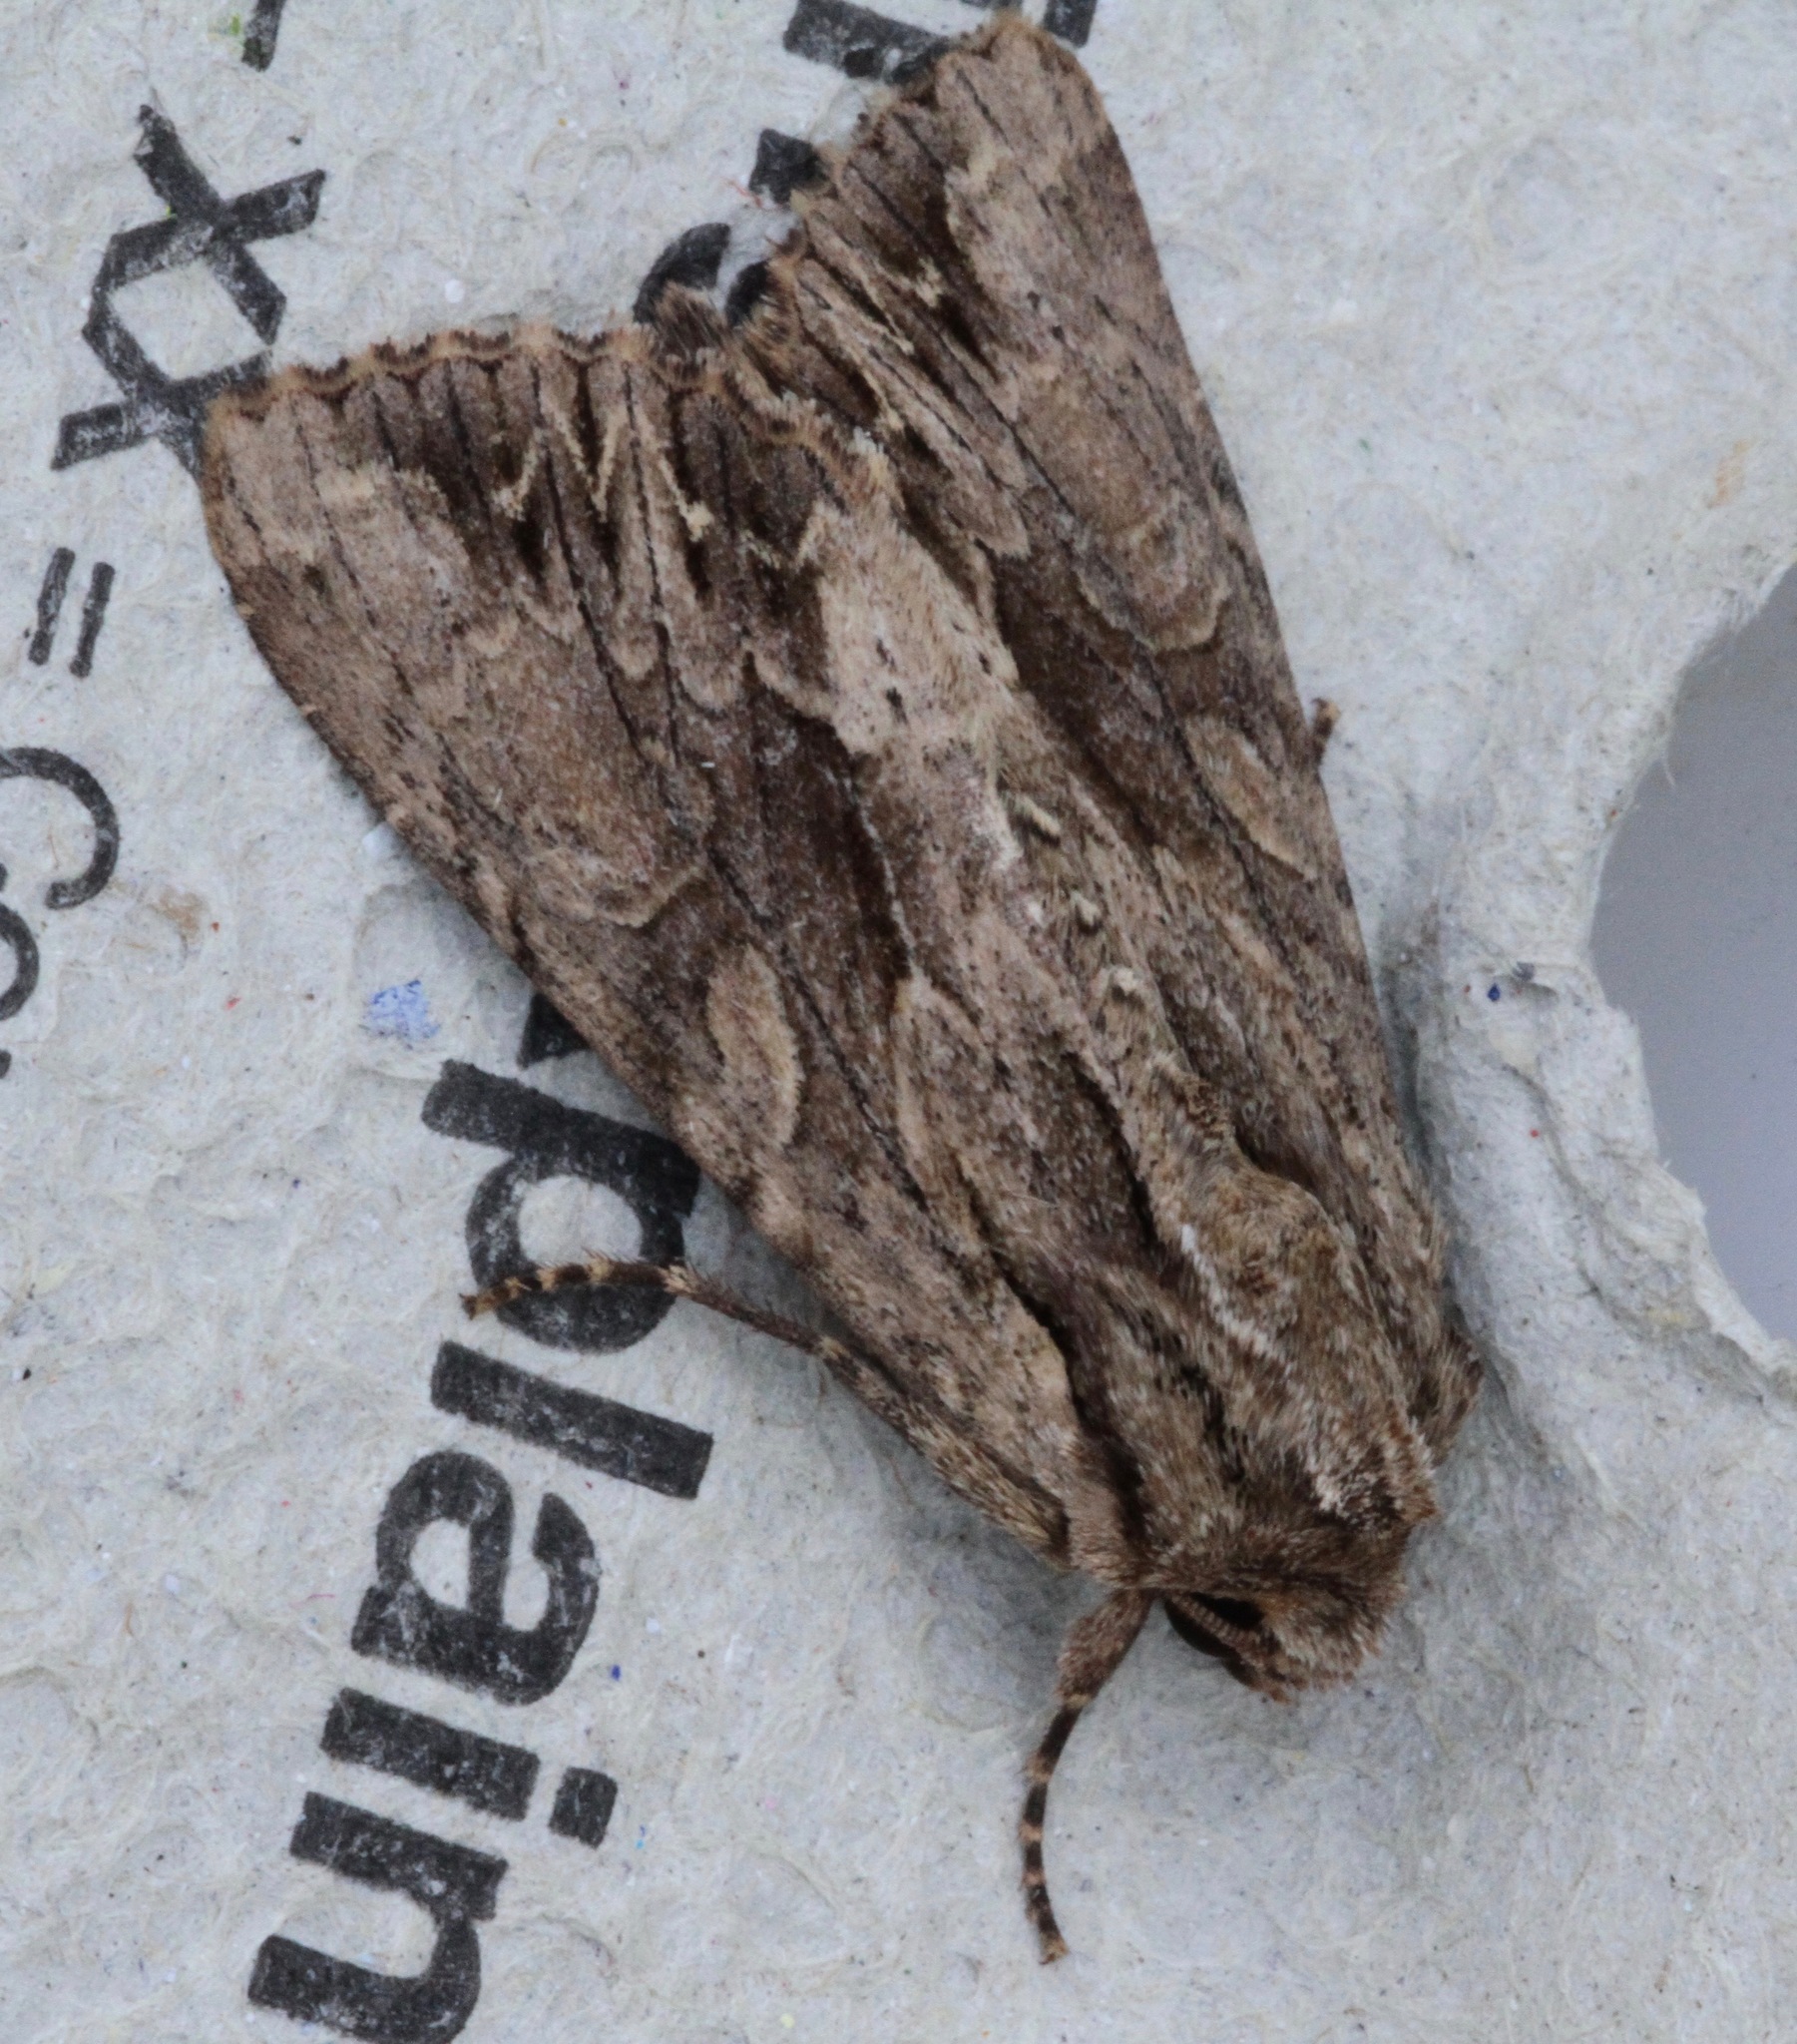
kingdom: Animalia
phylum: Arthropoda
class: Insecta
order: Lepidoptera
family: Noctuidae
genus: Apamea
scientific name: Apamea monoglypha
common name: Dark arches
